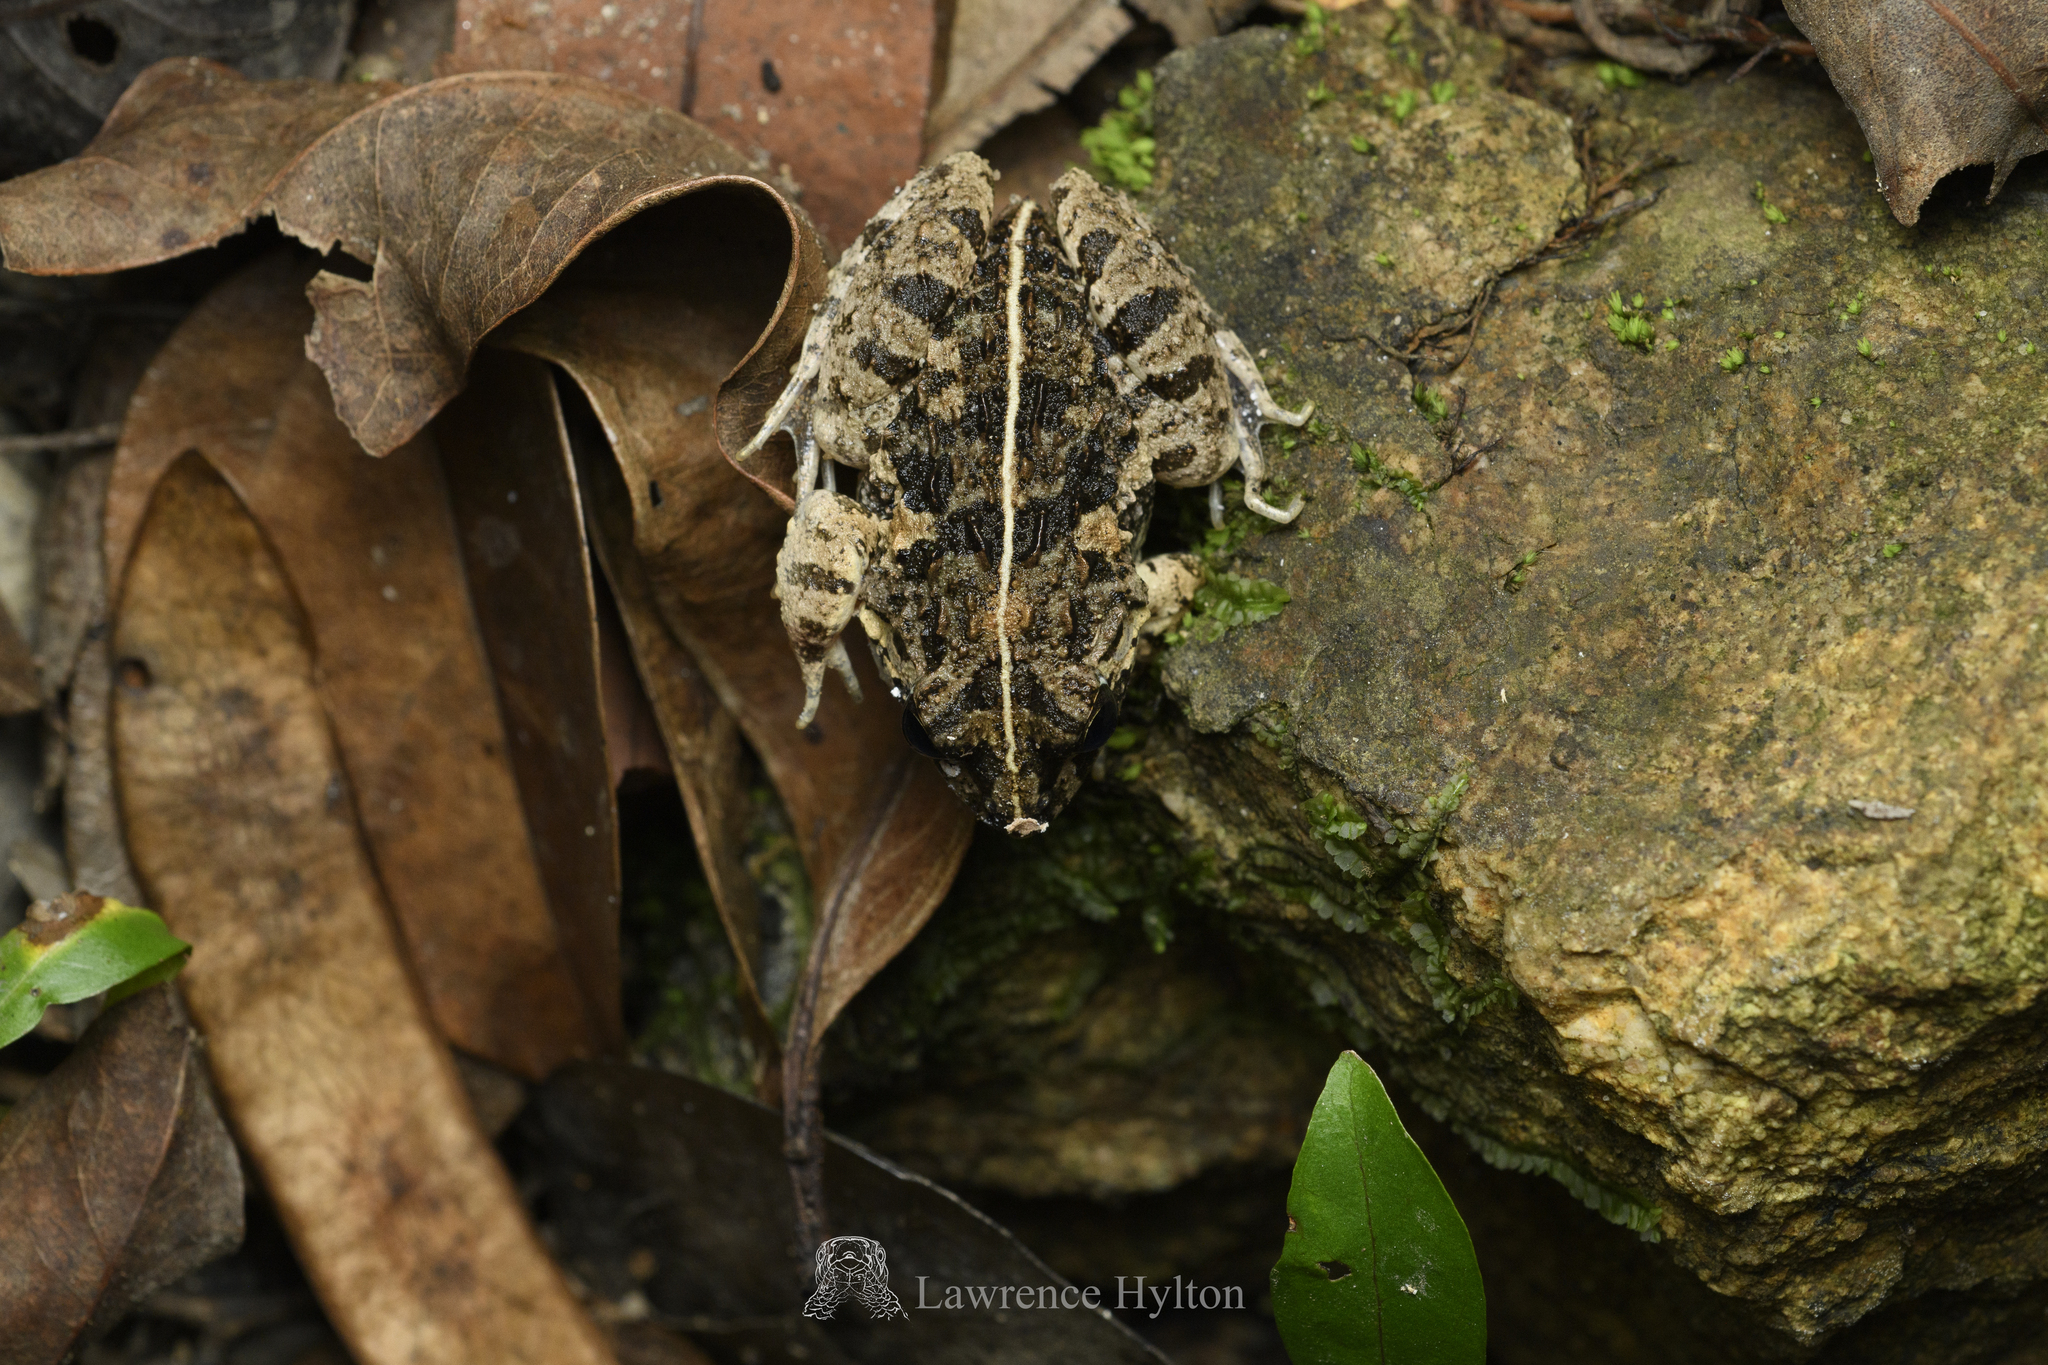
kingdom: Animalia
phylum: Chordata
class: Amphibia
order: Anura
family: Dicroglossidae
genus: Fejervarya
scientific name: Fejervarya multistriata
